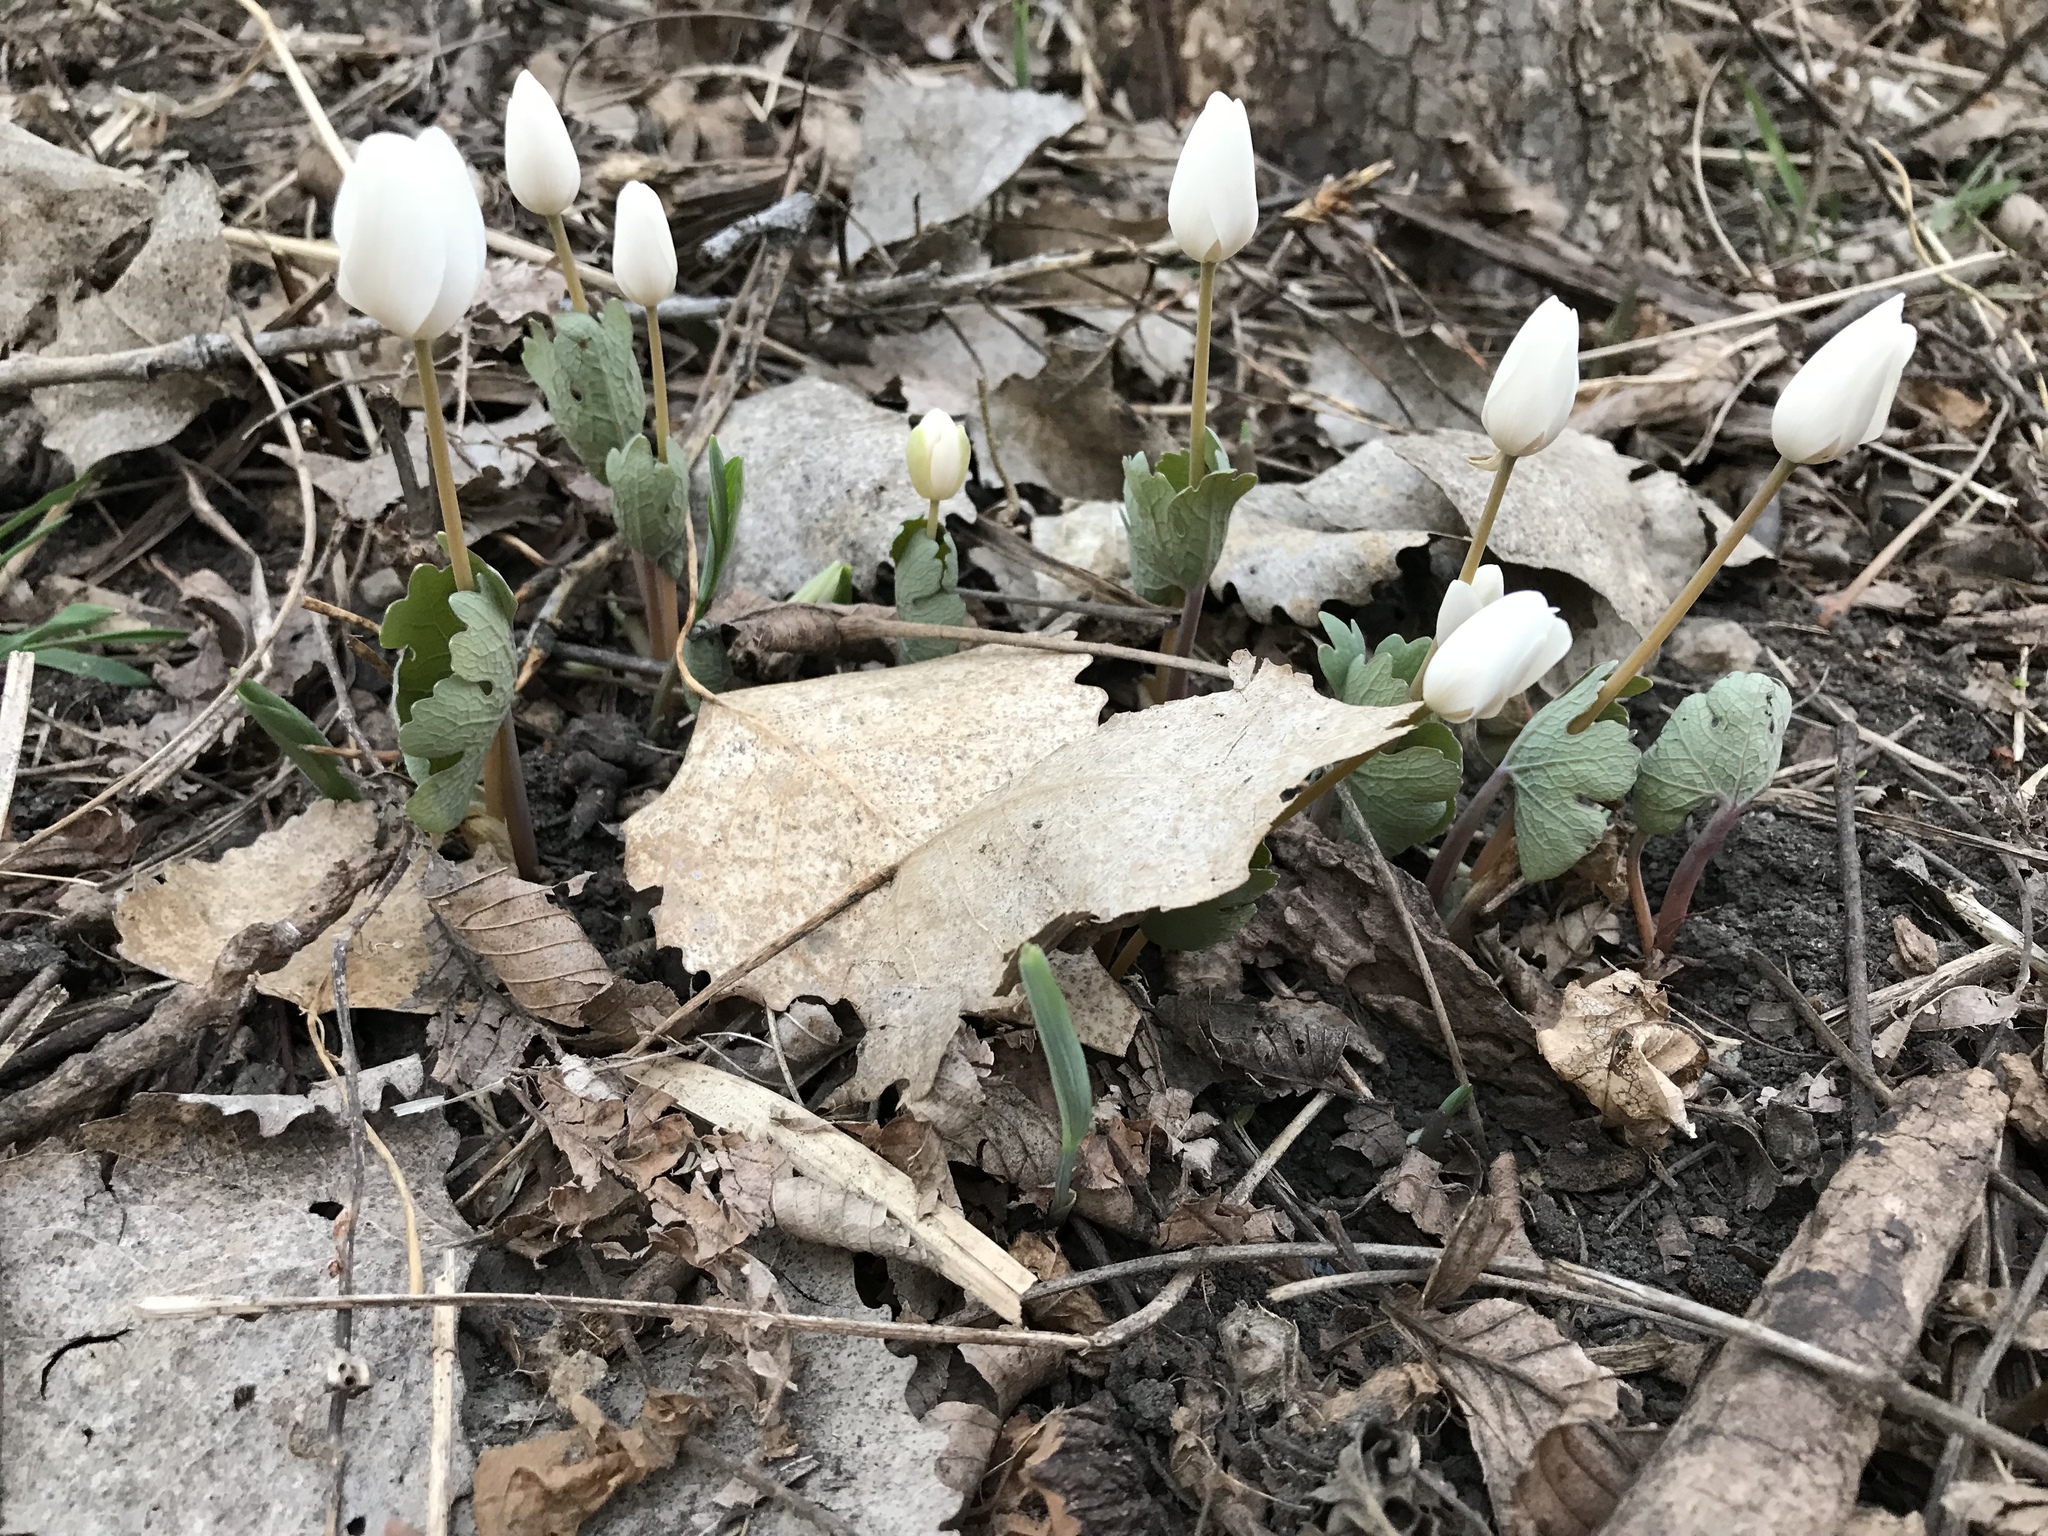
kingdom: Plantae
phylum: Tracheophyta
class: Magnoliopsida
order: Ranunculales
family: Papaveraceae
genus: Sanguinaria
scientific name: Sanguinaria canadensis
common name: Bloodroot
